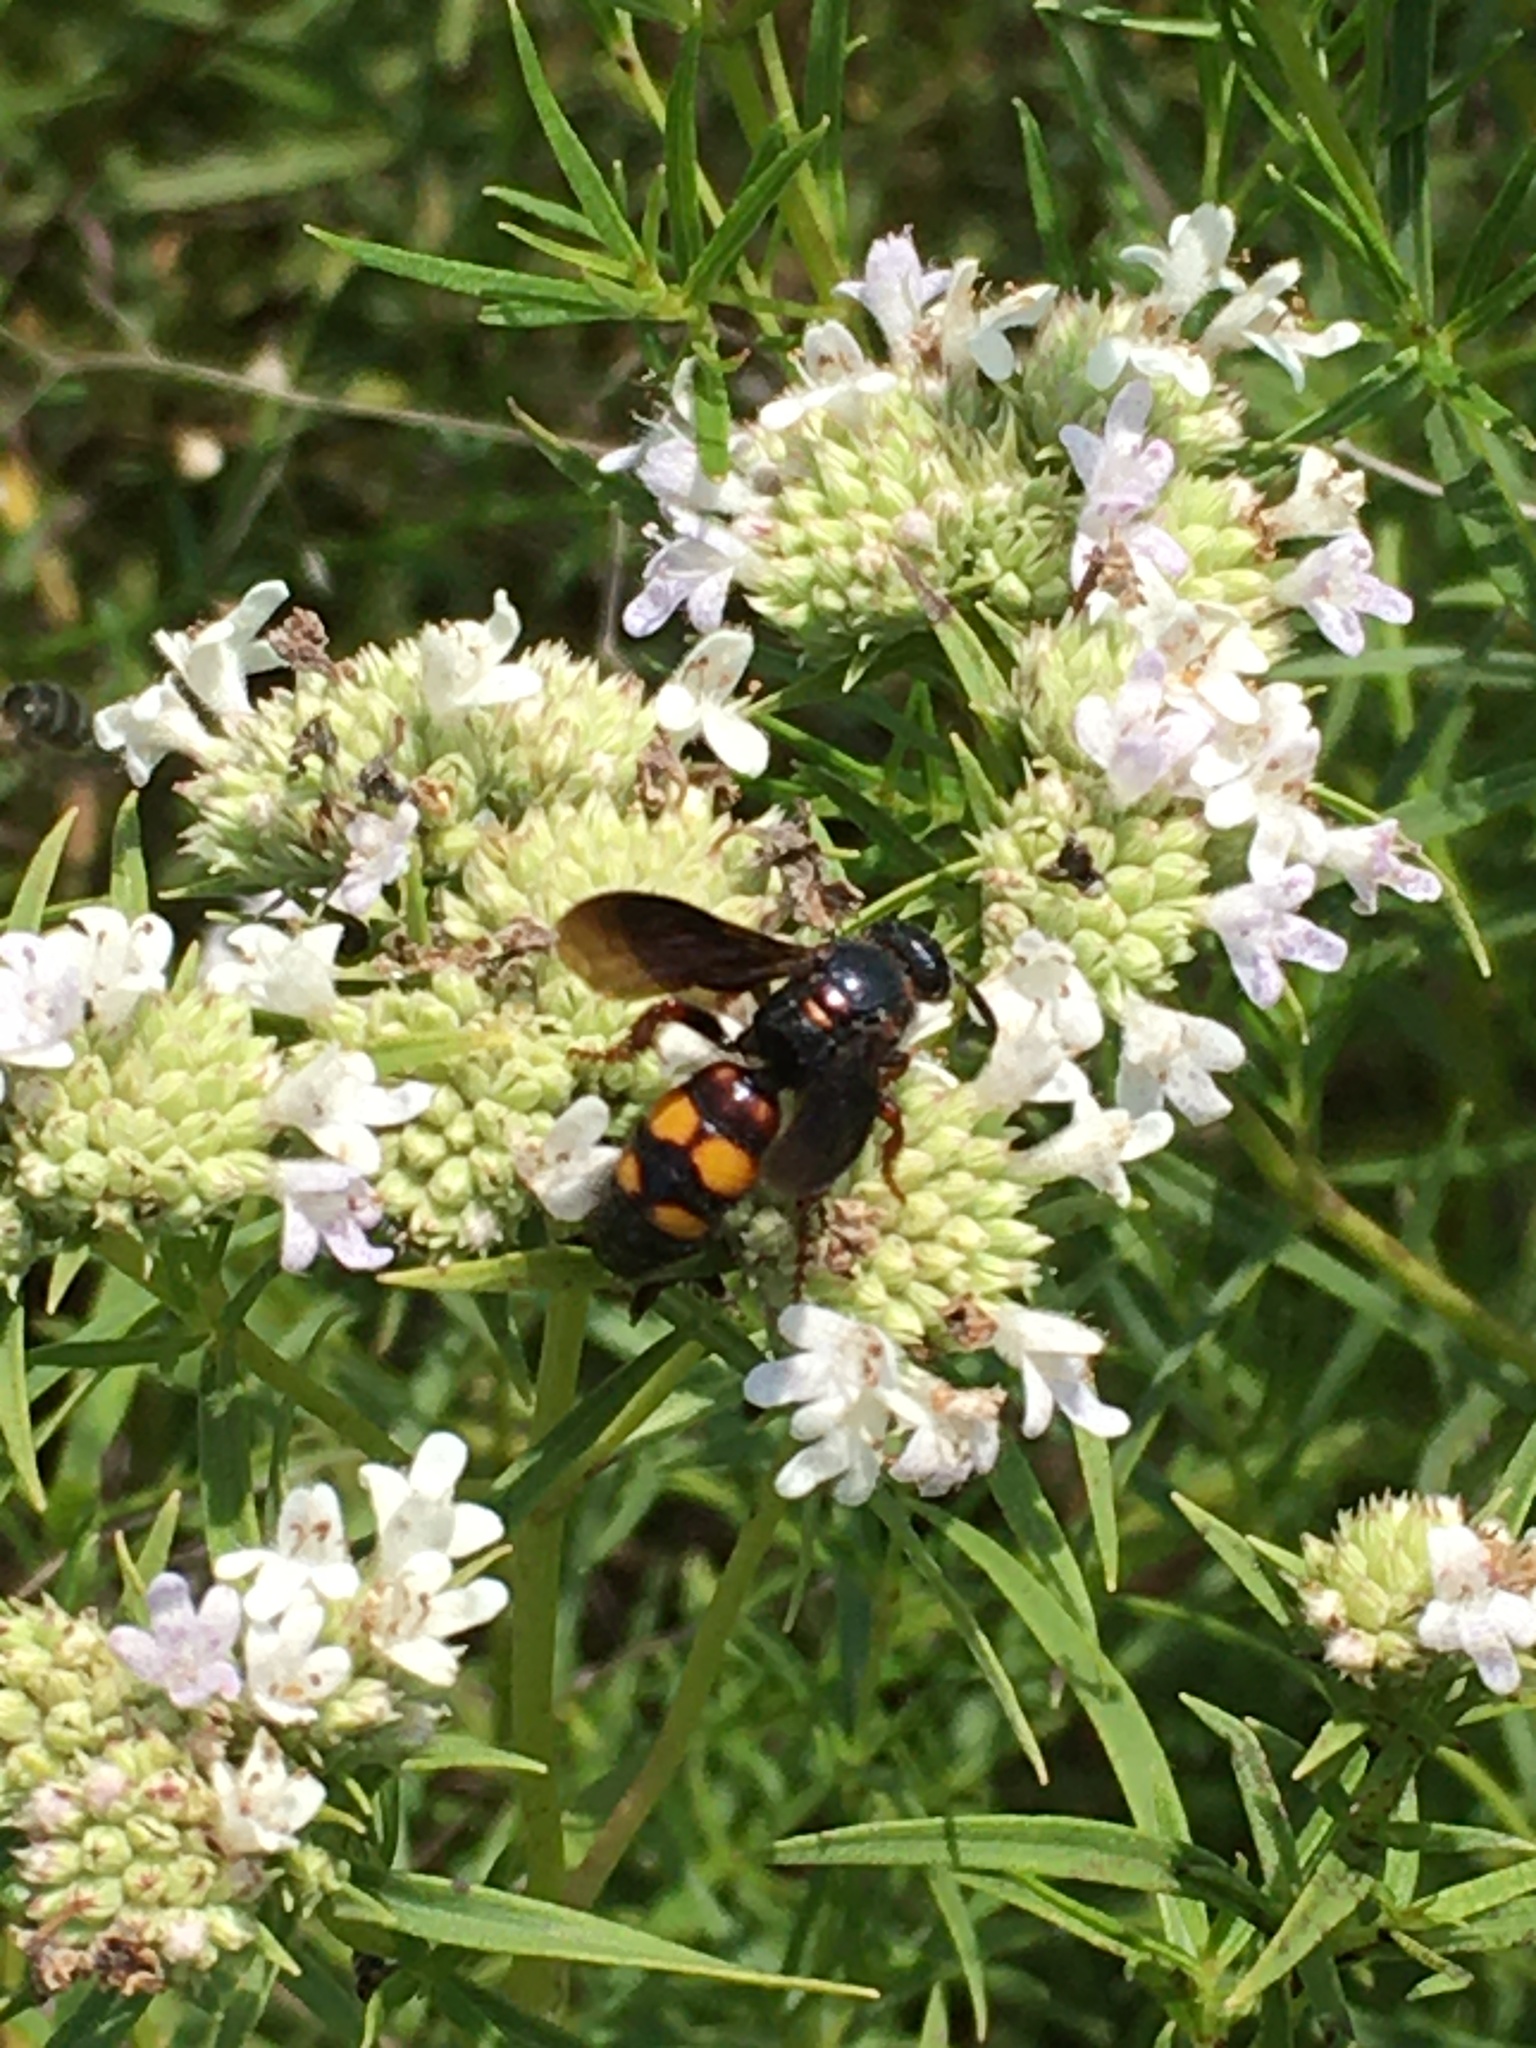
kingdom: Animalia
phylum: Arthropoda
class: Insecta
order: Hymenoptera
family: Scoliidae
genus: Scolia
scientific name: Scolia nobilitata
